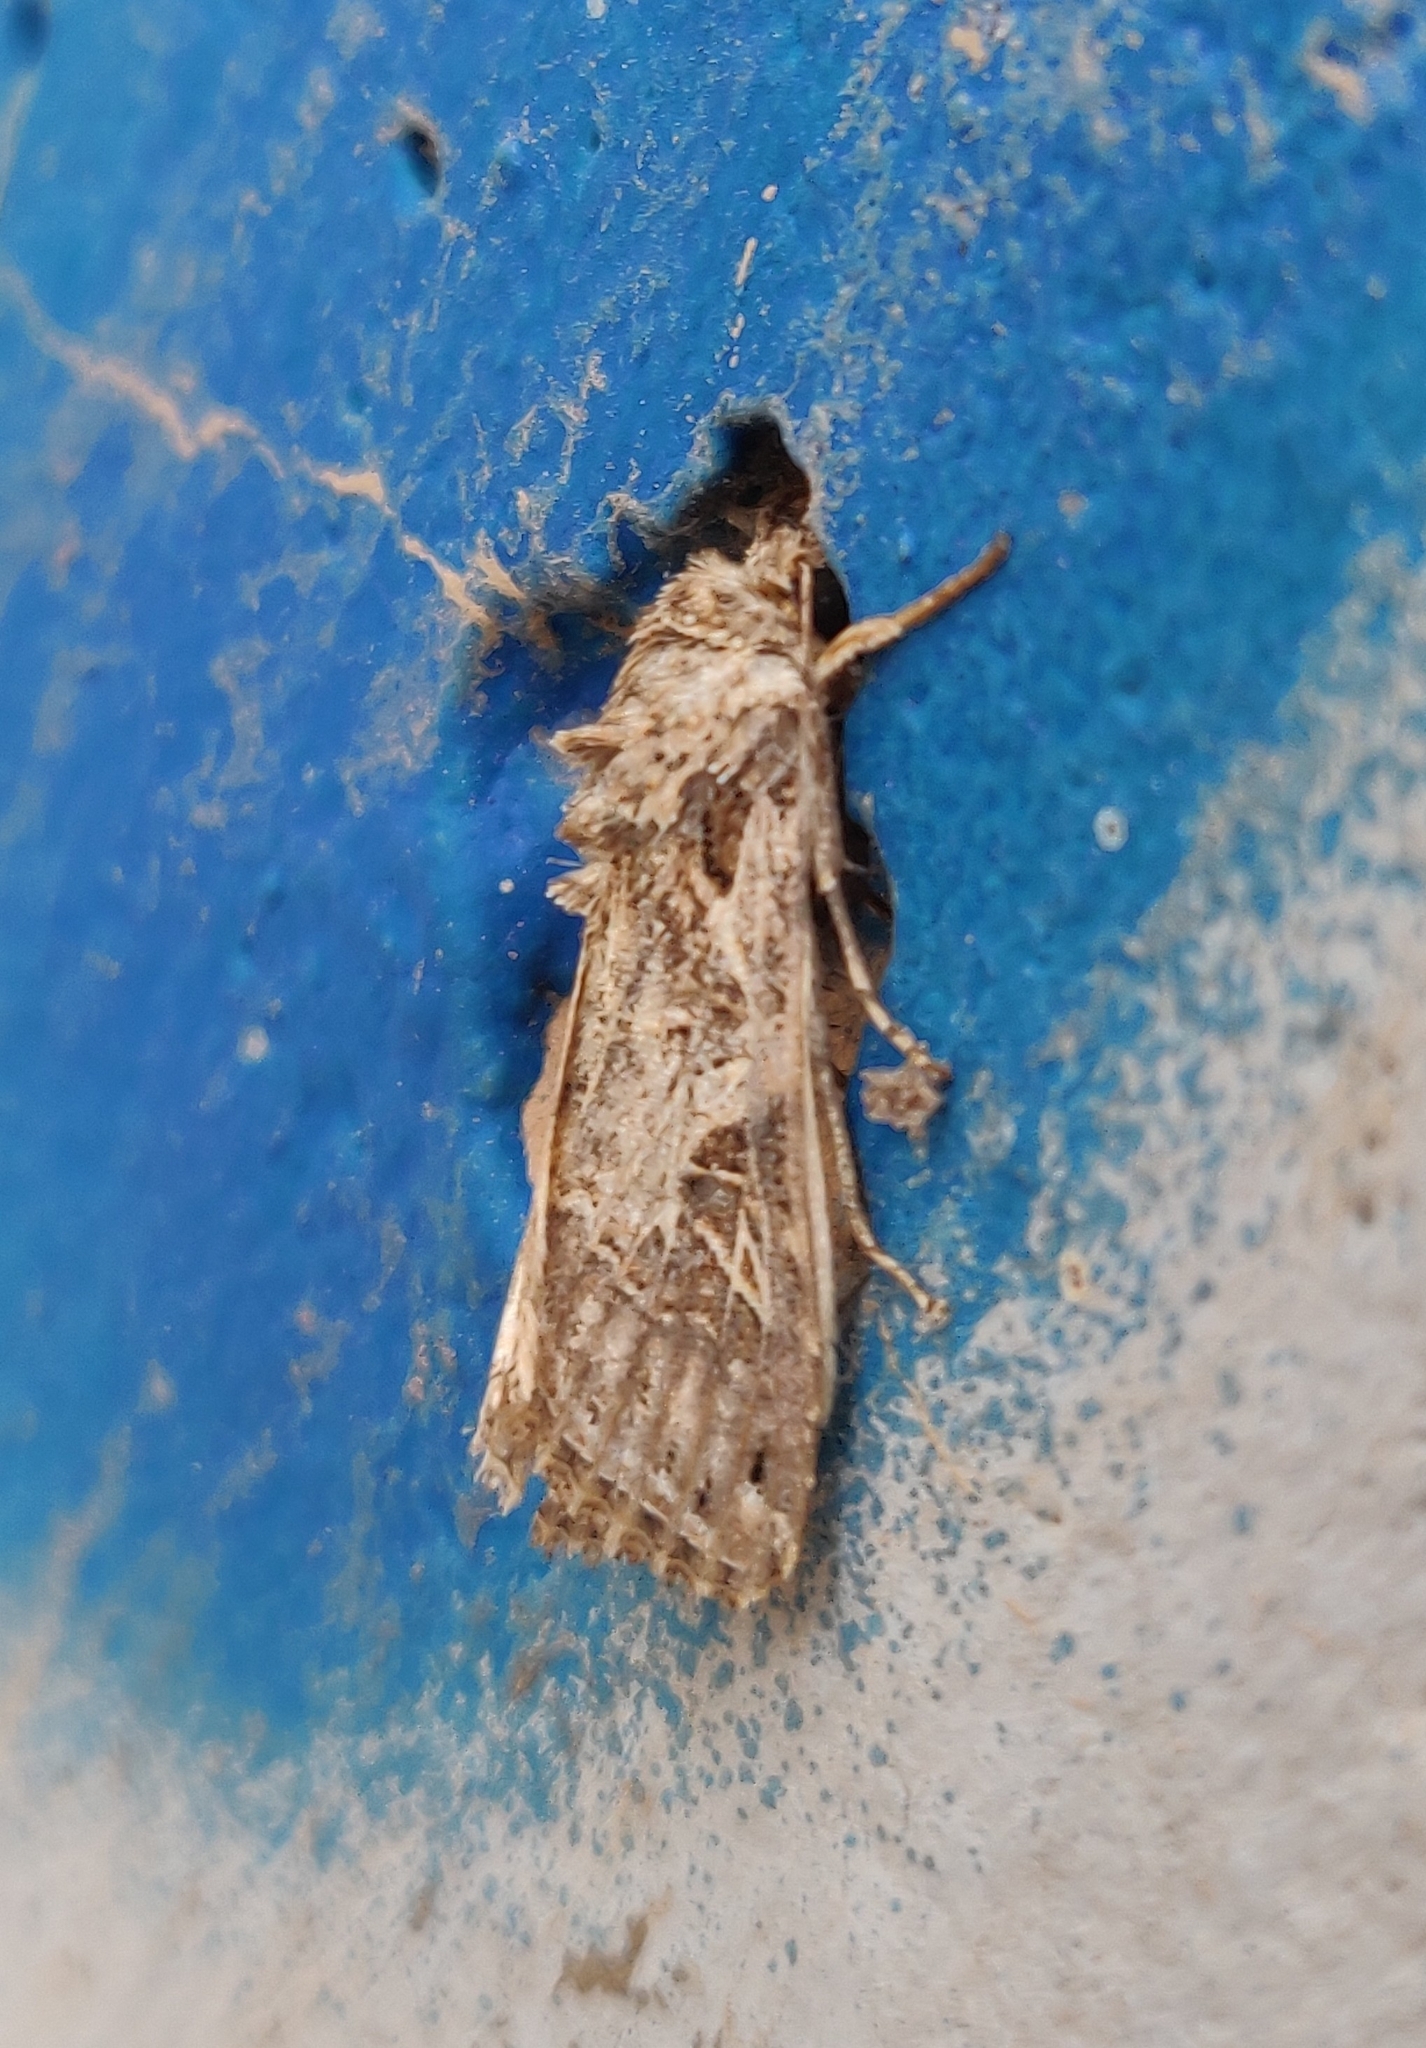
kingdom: Animalia
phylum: Arthropoda
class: Insecta
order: Lepidoptera
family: Noctuidae
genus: Spodoptera
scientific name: Spodoptera littoralis
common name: Egyptian cotton leafworm
